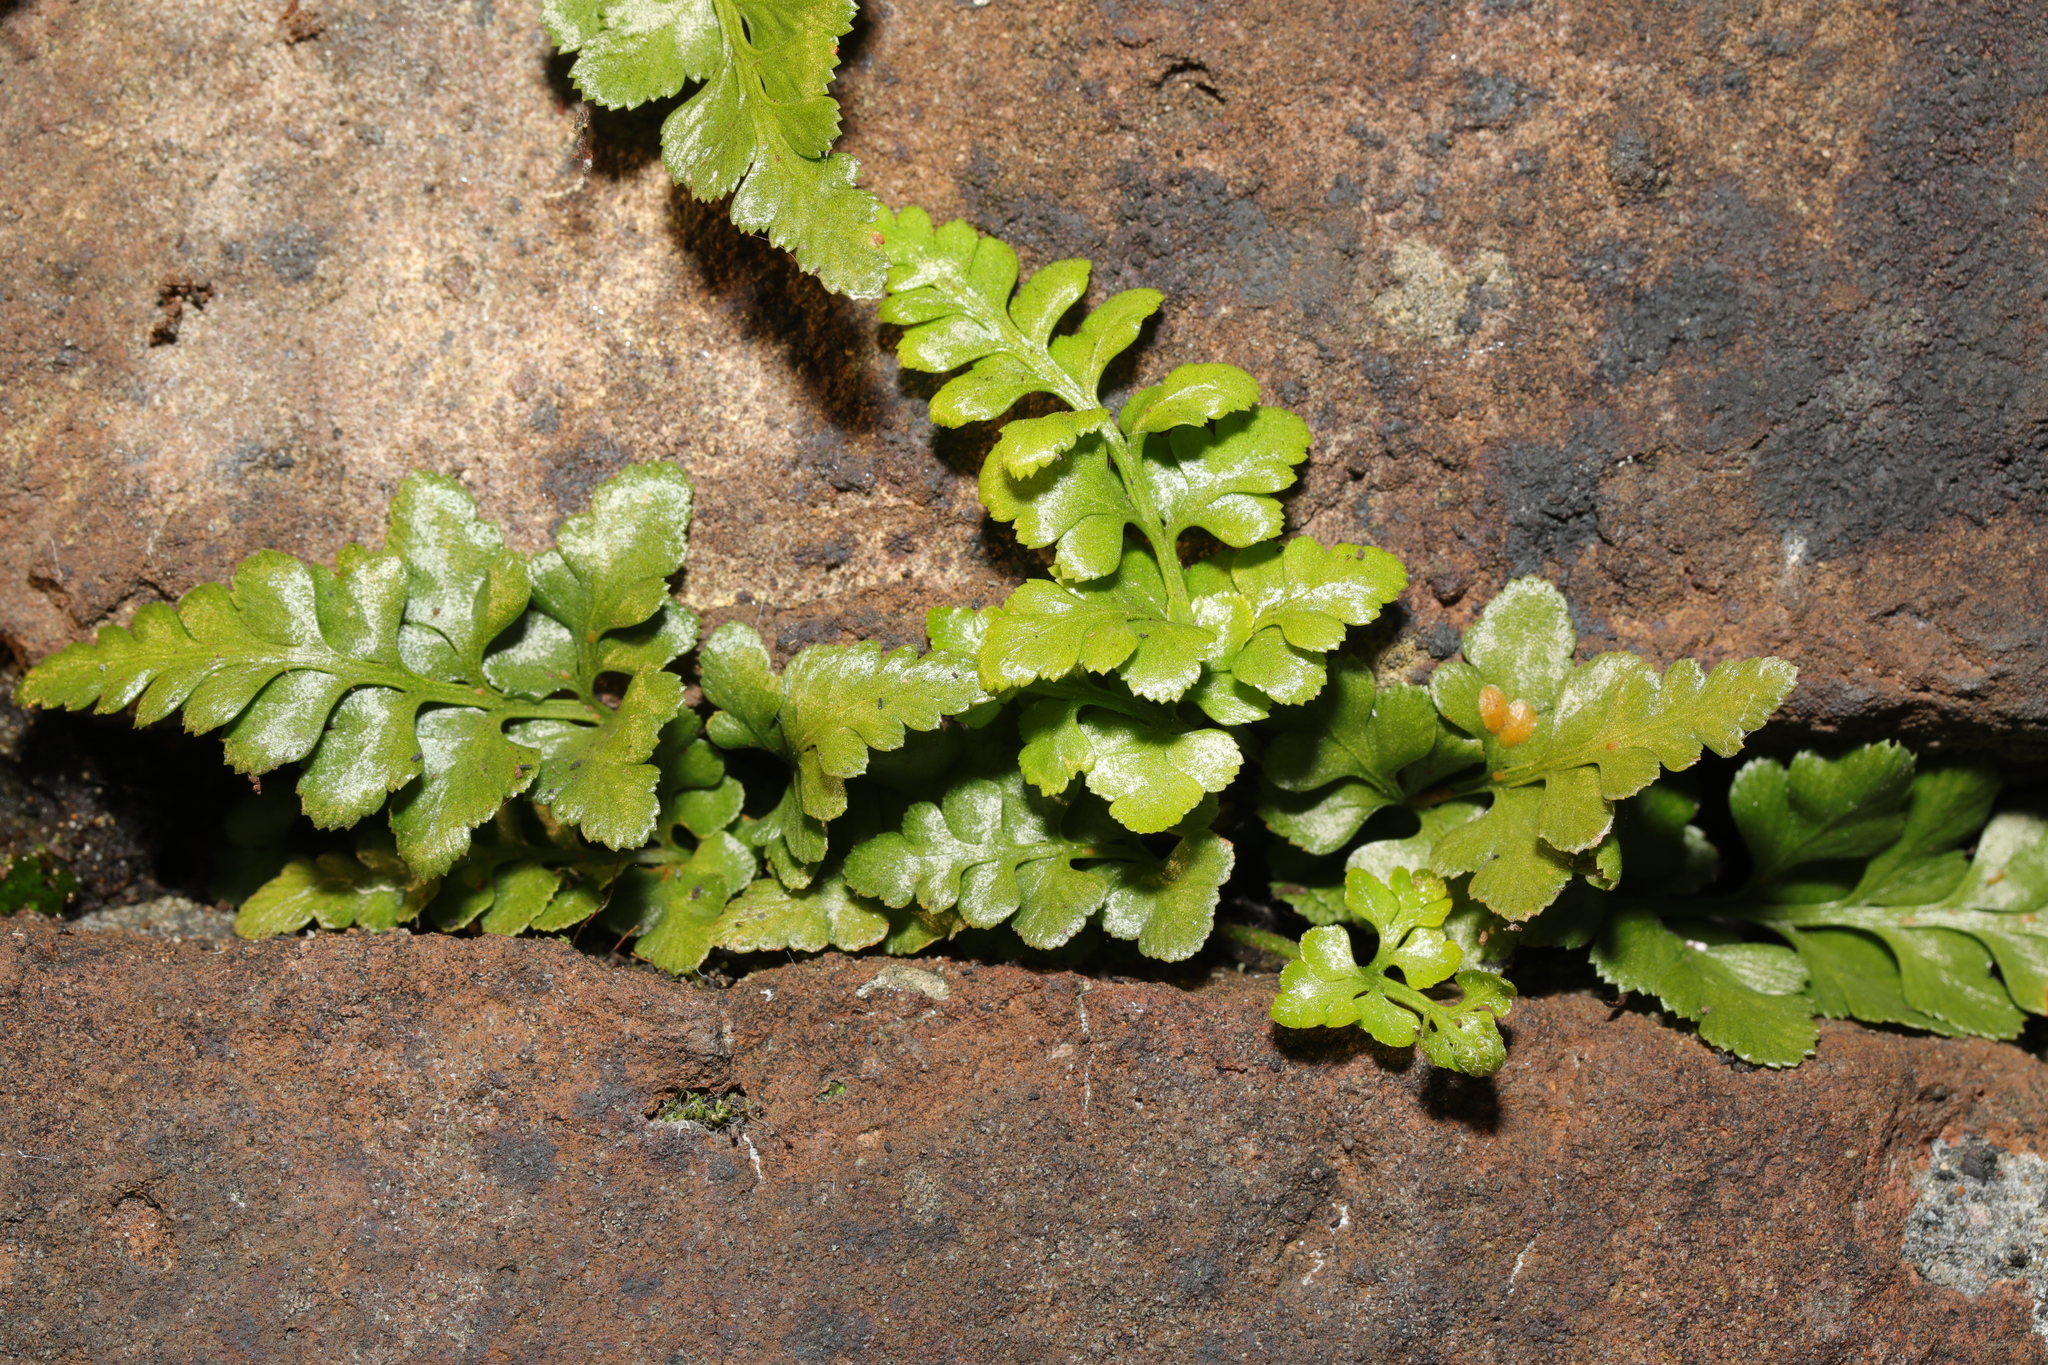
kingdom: Plantae
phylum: Tracheophyta
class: Polypodiopsida
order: Polypodiales
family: Aspleniaceae
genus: Asplenium
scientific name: Asplenium adiantum-nigrum
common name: Black spleenwort
